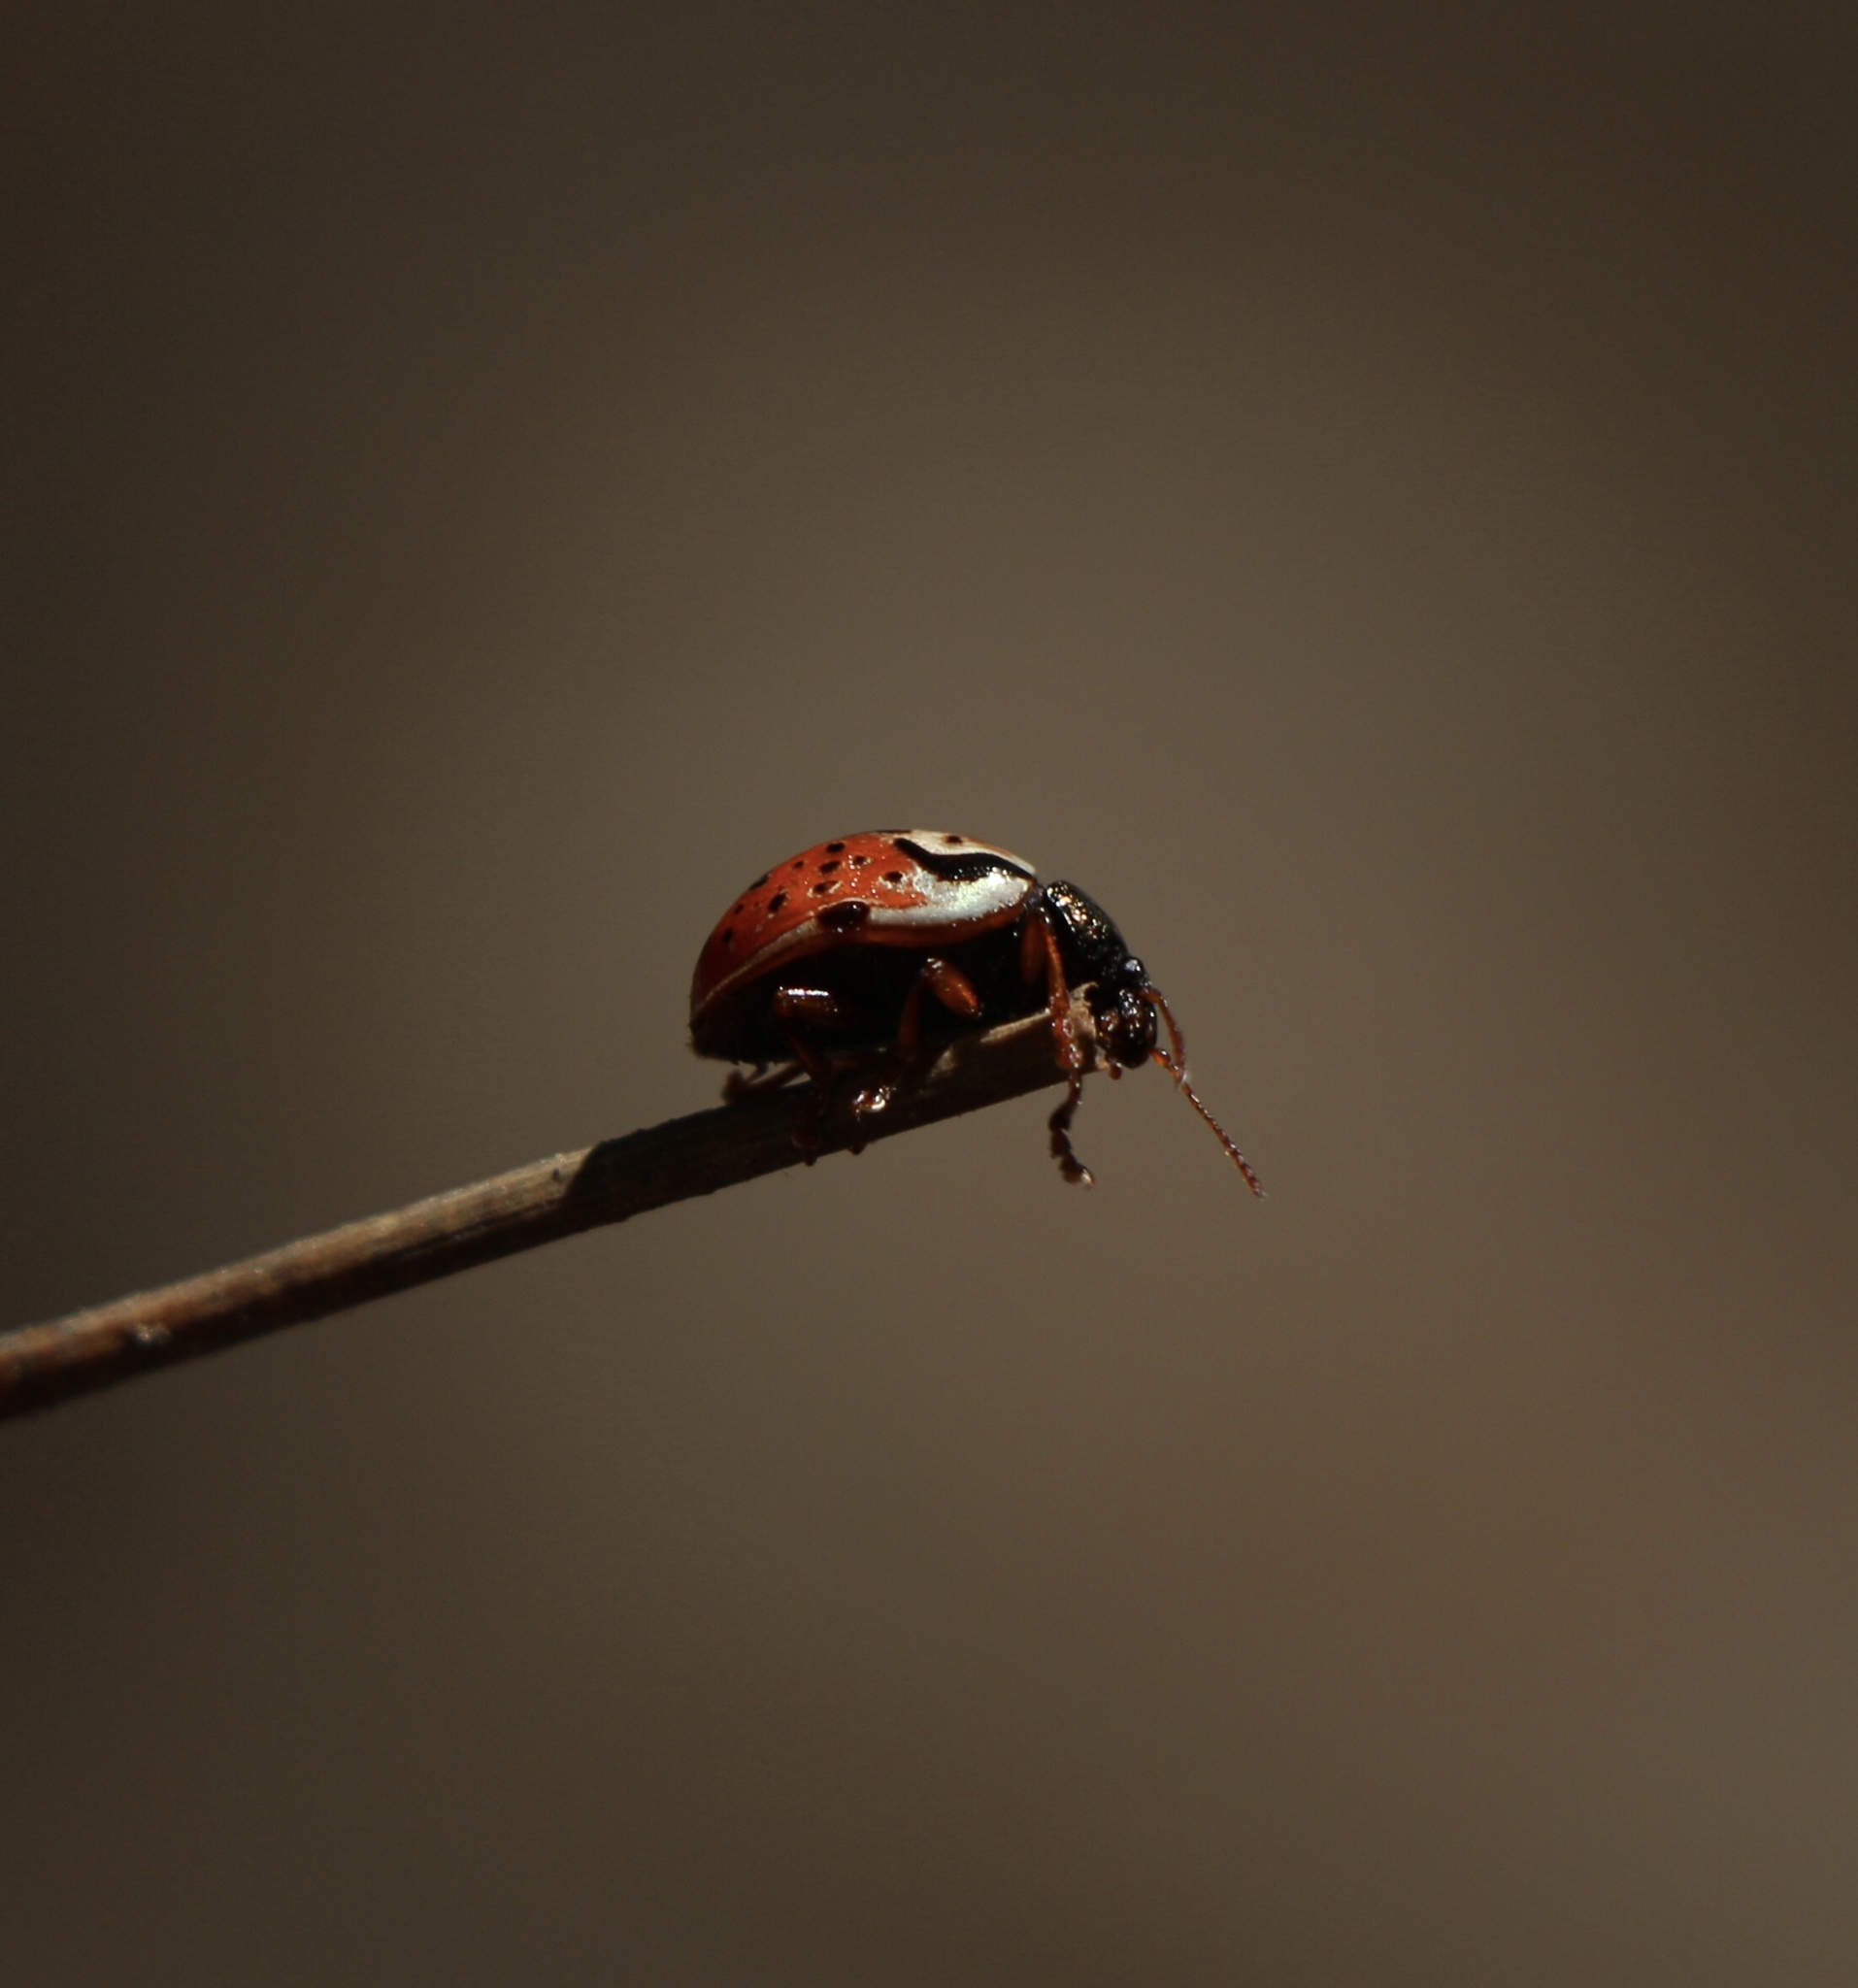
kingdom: Animalia
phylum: Arthropoda
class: Insecta
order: Coleoptera
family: Chrysomelidae
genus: Calligrapha
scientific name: Calligrapha rowena
